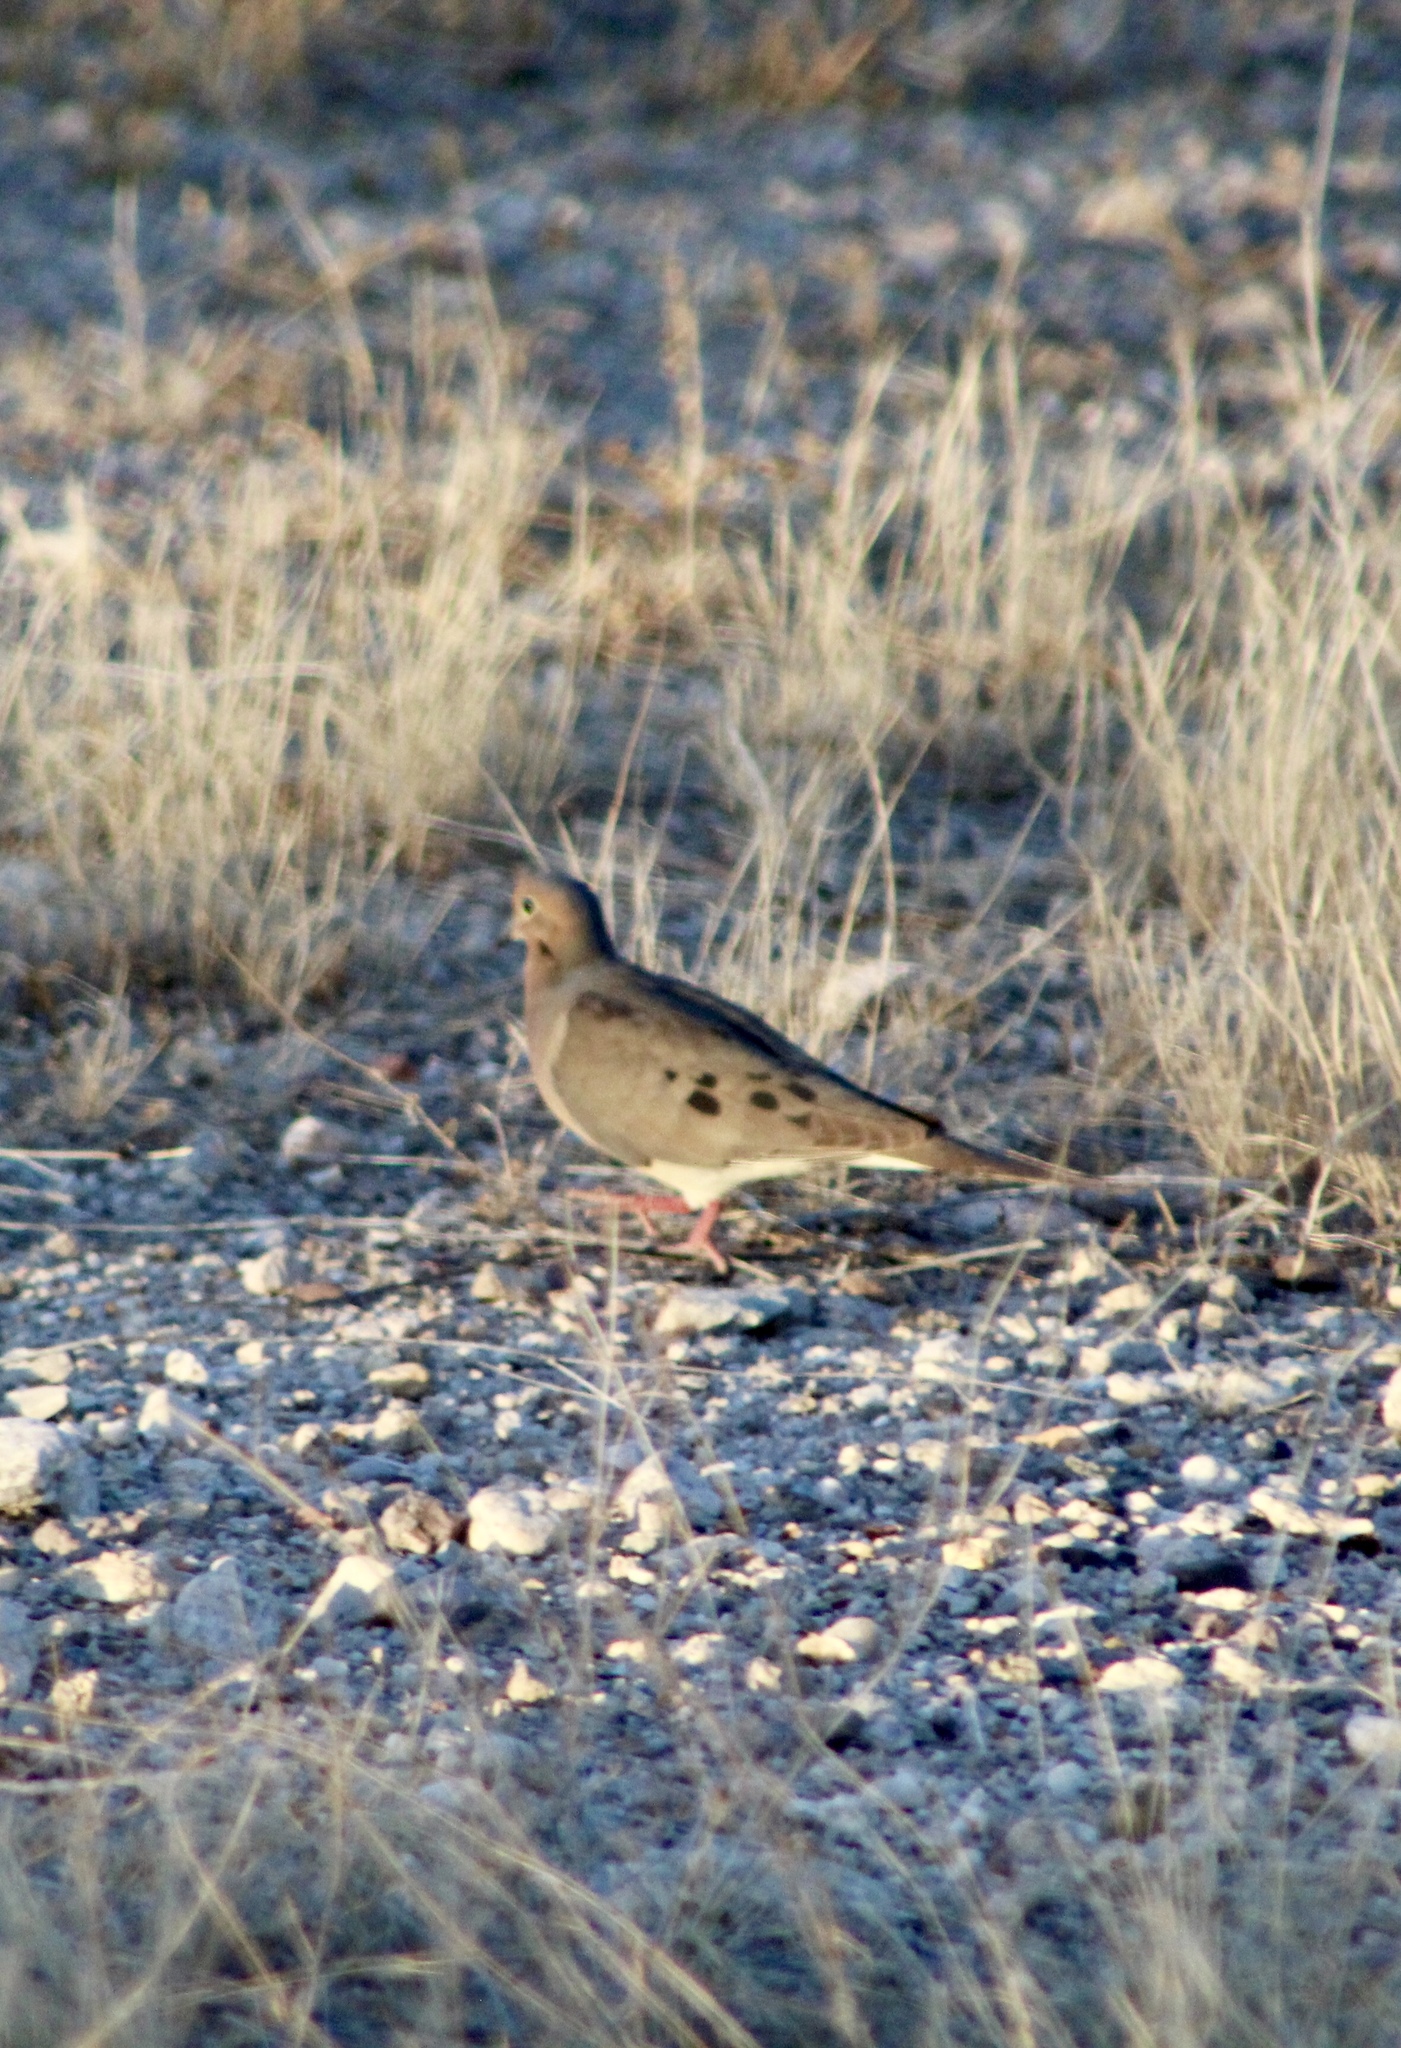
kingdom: Animalia
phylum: Chordata
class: Aves
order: Columbiformes
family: Columbidae
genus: Zenaida
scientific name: Zenaida macroura
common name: Mourning dove
